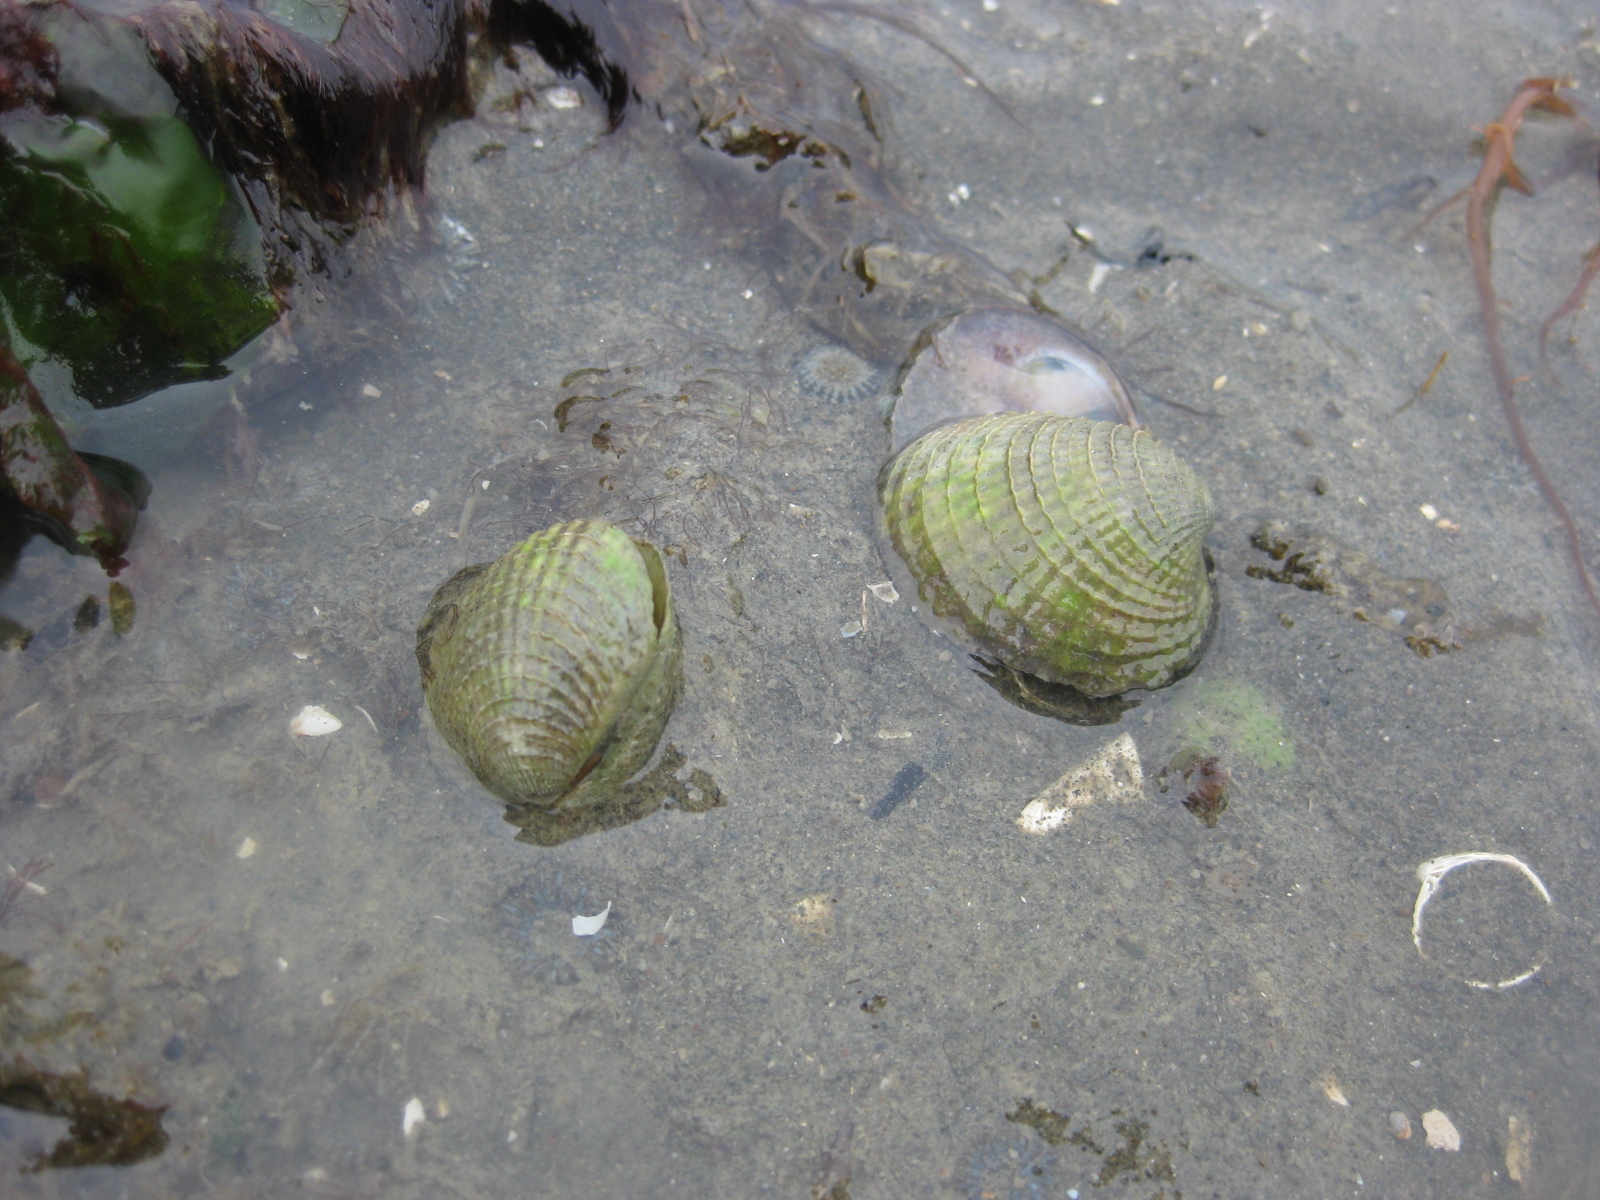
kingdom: Animalia
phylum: Mollusca
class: Bivalvia
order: Venerida
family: Veneridae
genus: Austrovenus
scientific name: Austrovenus stutchburyi
